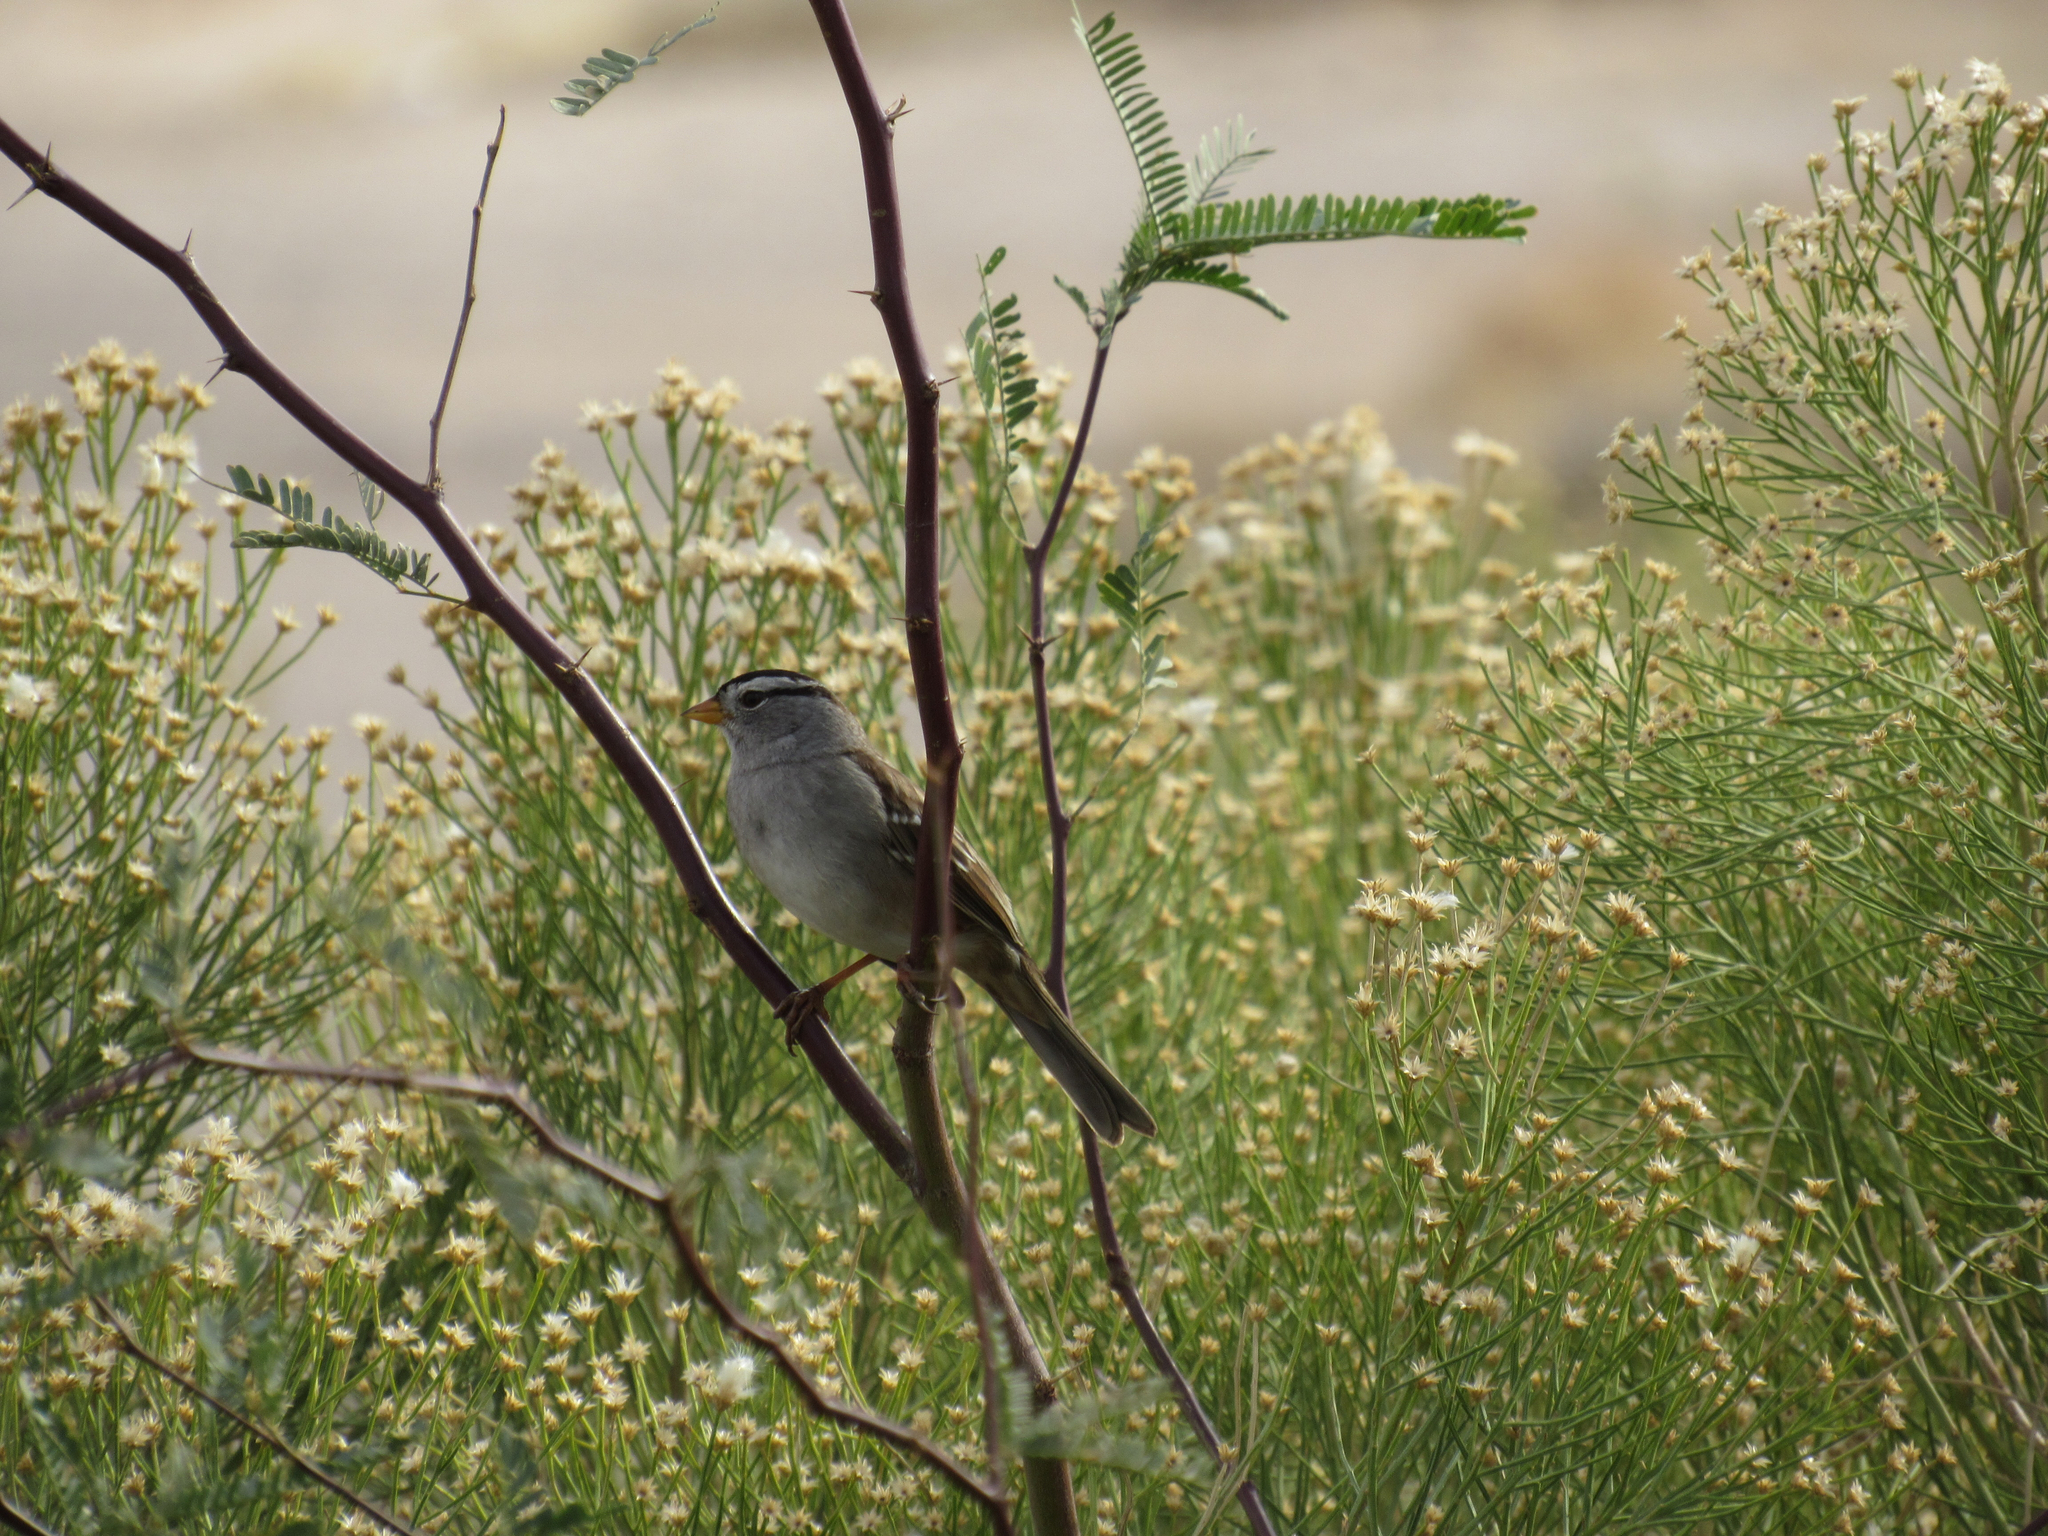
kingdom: Animalia
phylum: Chordata
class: Aves
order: Passeriformes
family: Passerellidae
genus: Zonotrichia
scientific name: Zonotrichia leucophrys
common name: White-crowned sparrow
